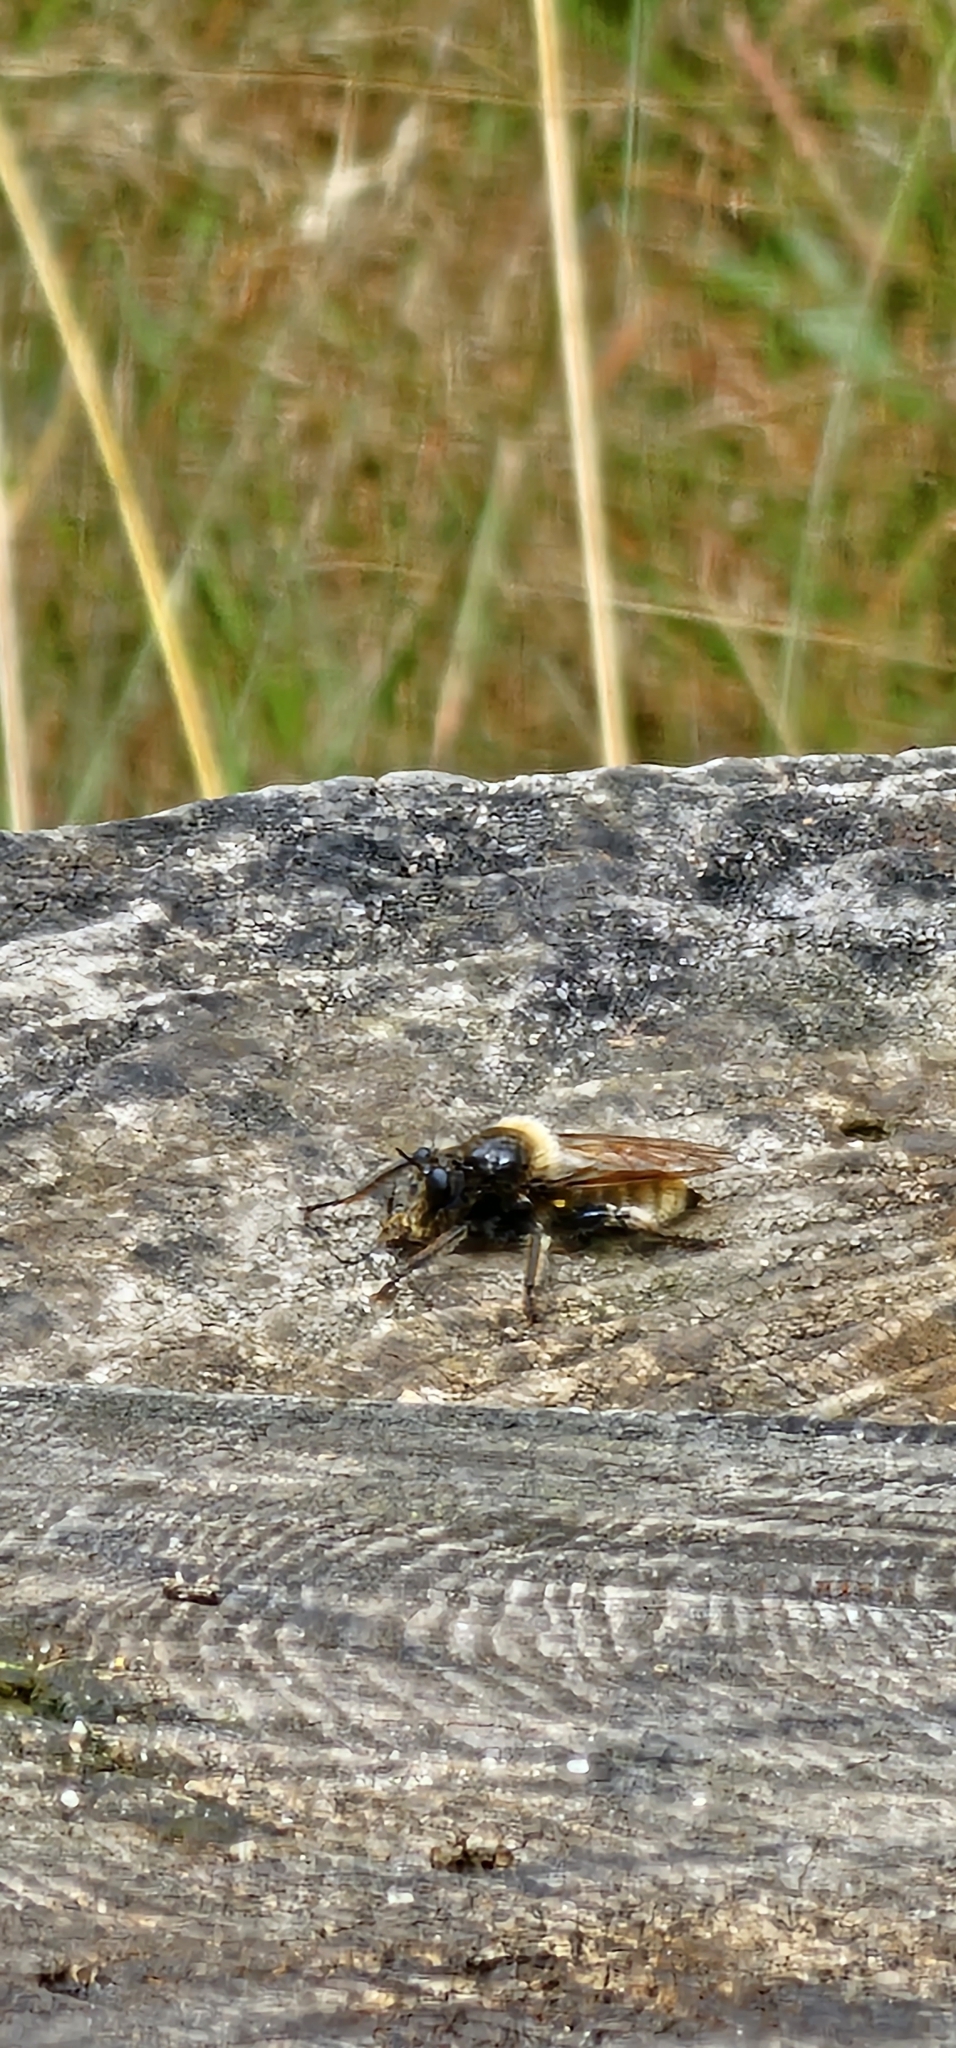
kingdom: Animalia
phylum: Arthropoda
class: Insecta
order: Diptera
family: Asilidae
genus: Laphria
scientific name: Laphria flava
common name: Bumblebee robberfly
